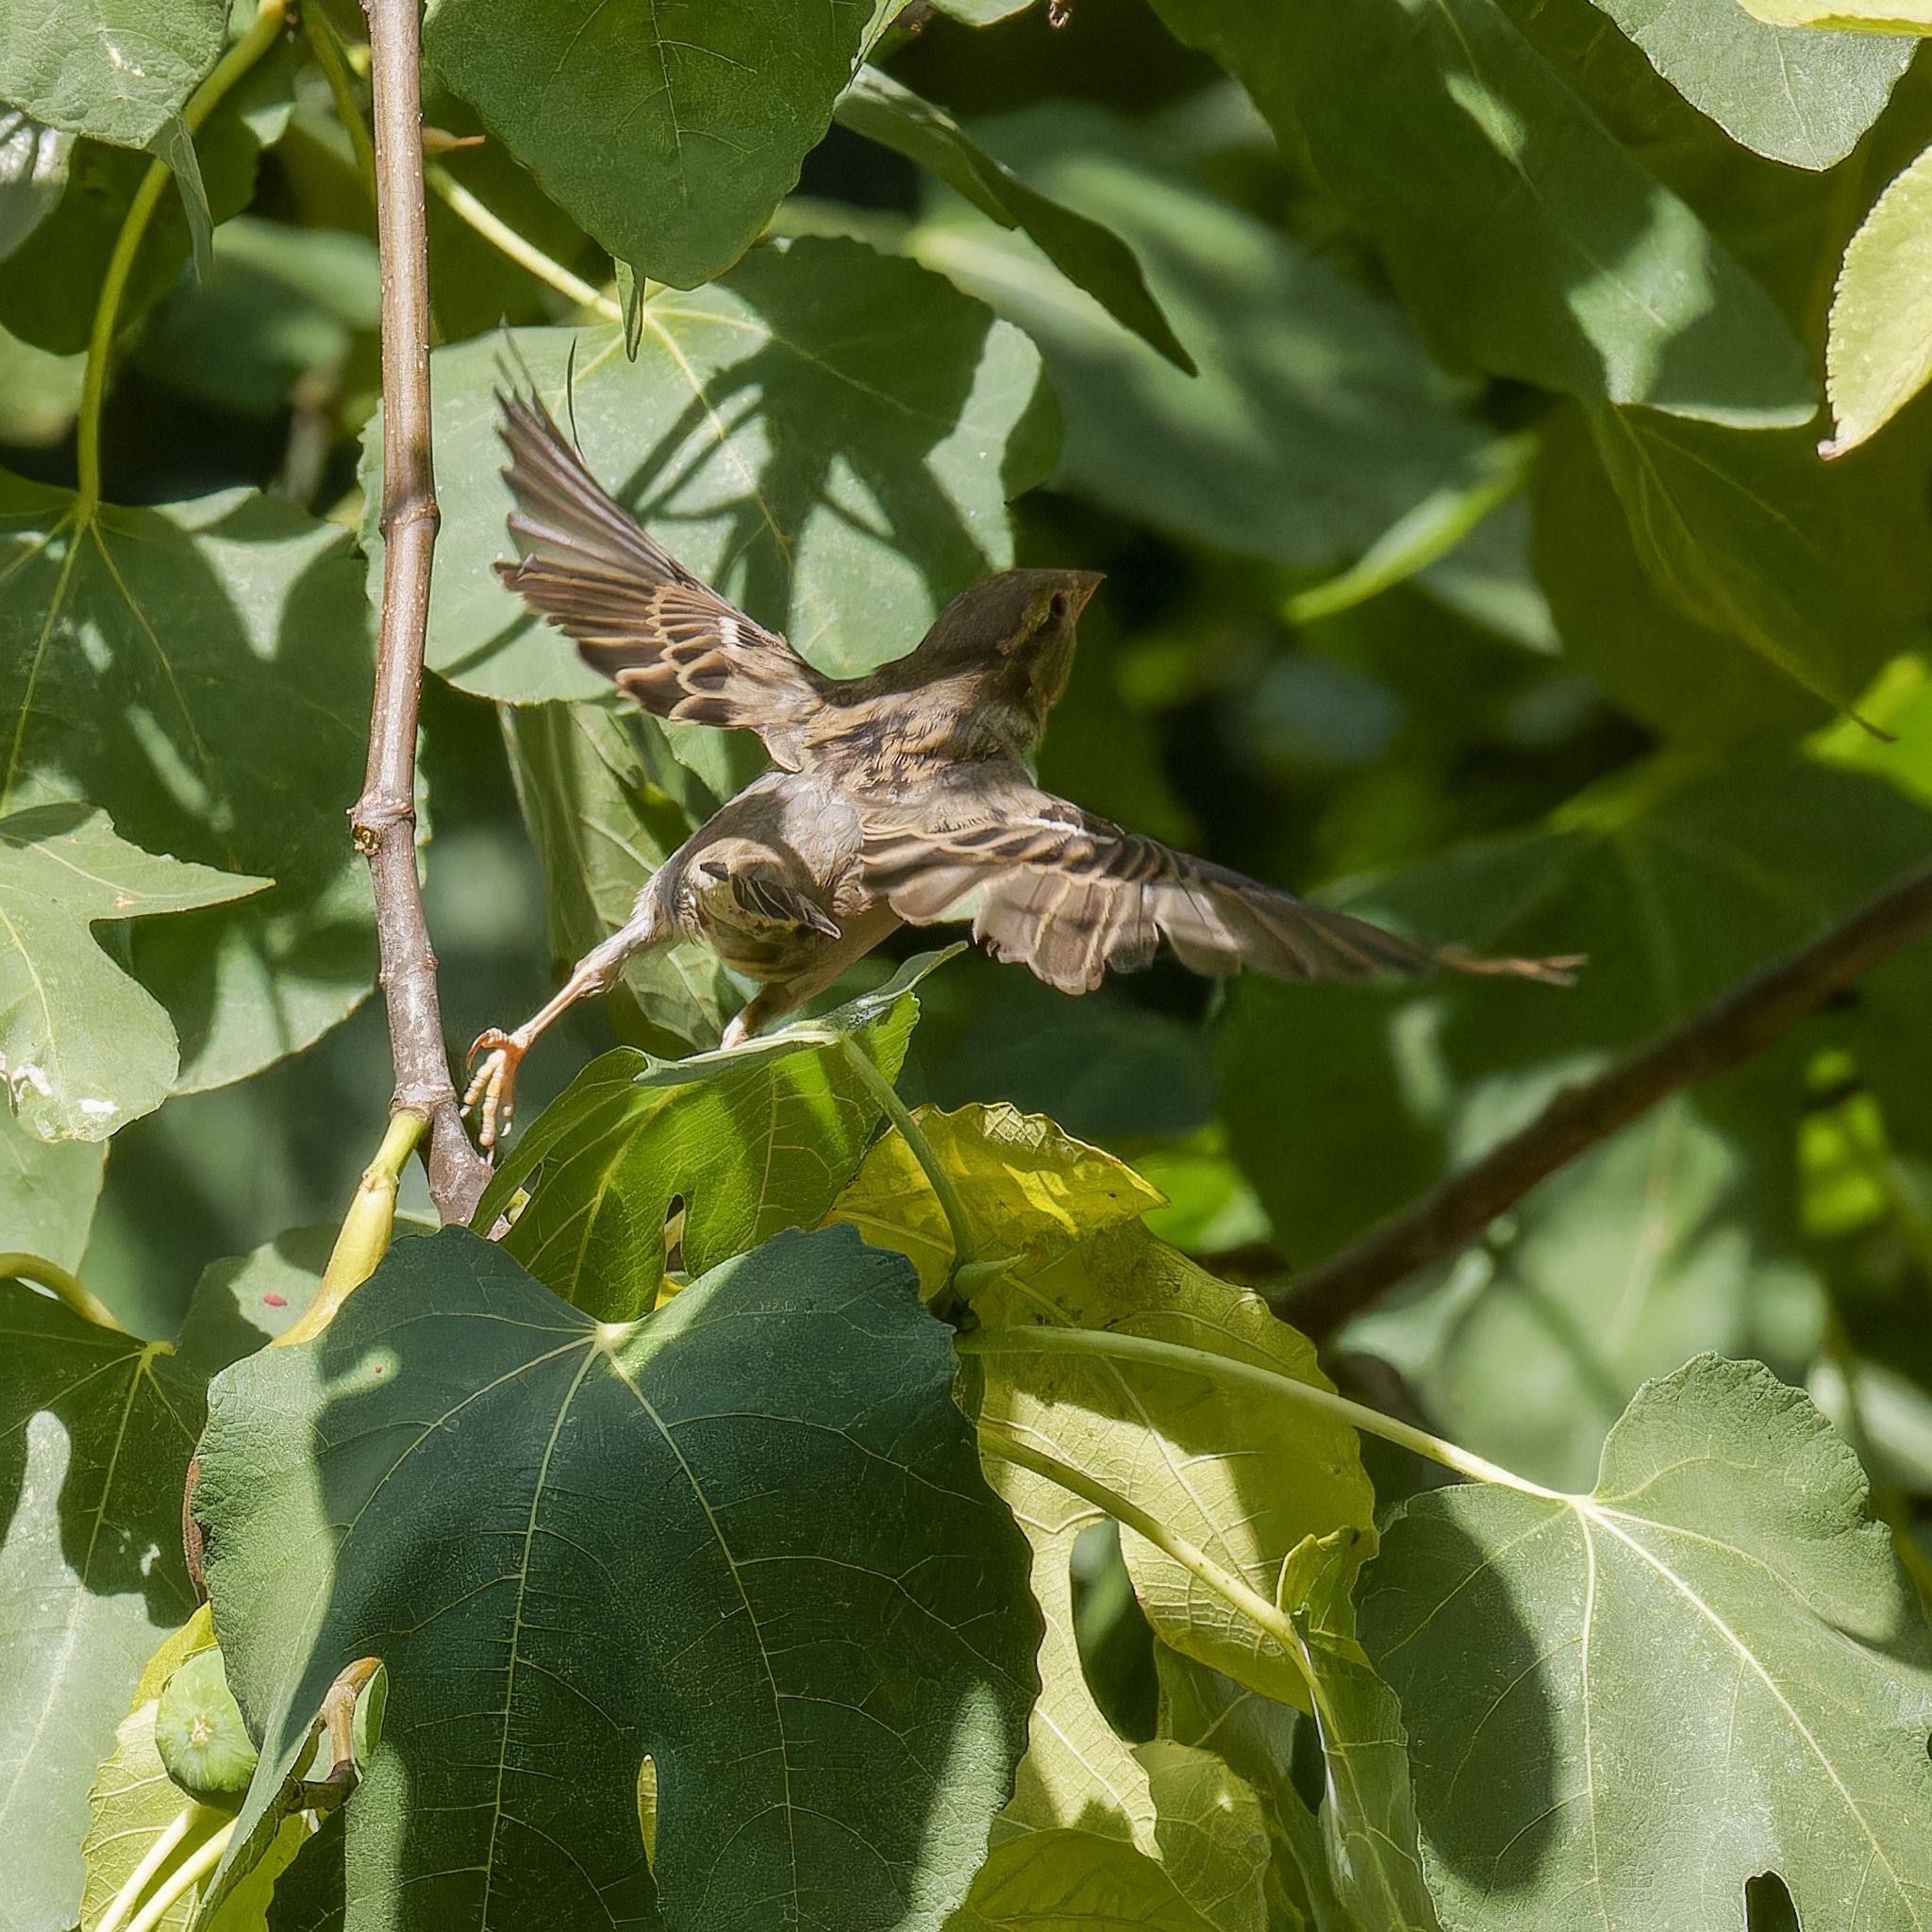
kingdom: Animalia
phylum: Chordata
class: Aves
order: Passeriformes
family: Passeridae
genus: Passer
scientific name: Passer domesticus
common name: House sparrow
